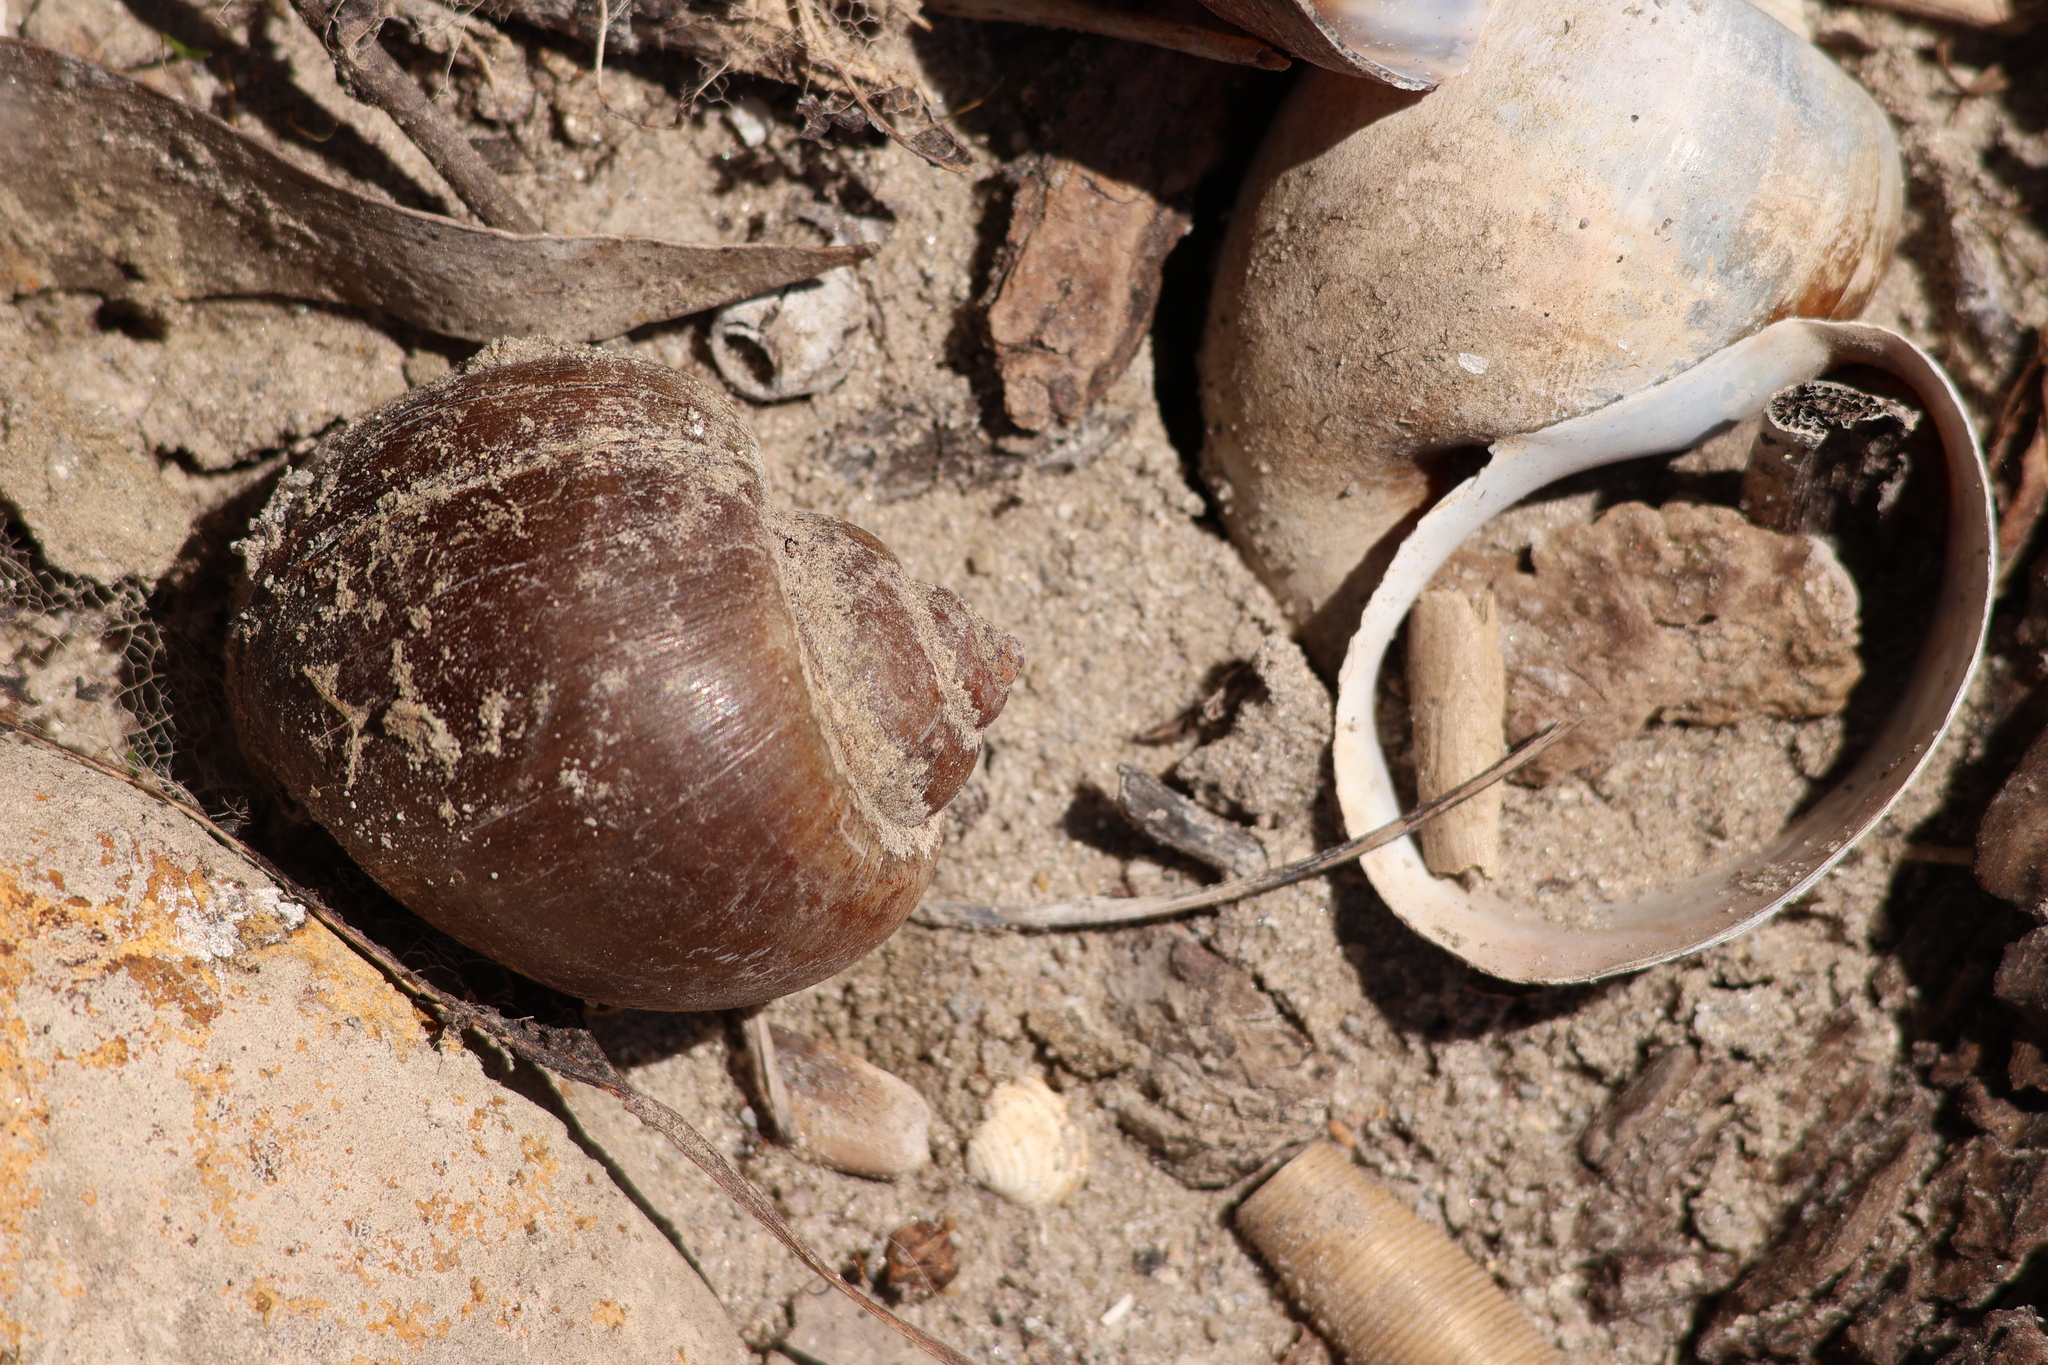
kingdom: Animalia
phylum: Mollusca
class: Gastropoda
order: Architaenioglossa
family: Ampullariidae
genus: Pomacea
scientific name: Pomacea canaliculata
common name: Channeled applesnail
